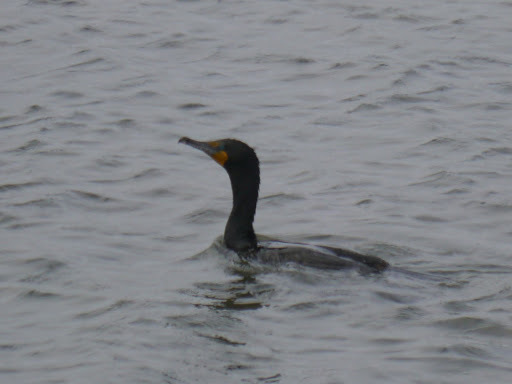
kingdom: Animalia
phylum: Chordata
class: Aves
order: Suliformes
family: Phalacrocoracidae
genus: Phalacrocorax
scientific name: Phalacrocorax auritus
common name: Double-crested cormorant
